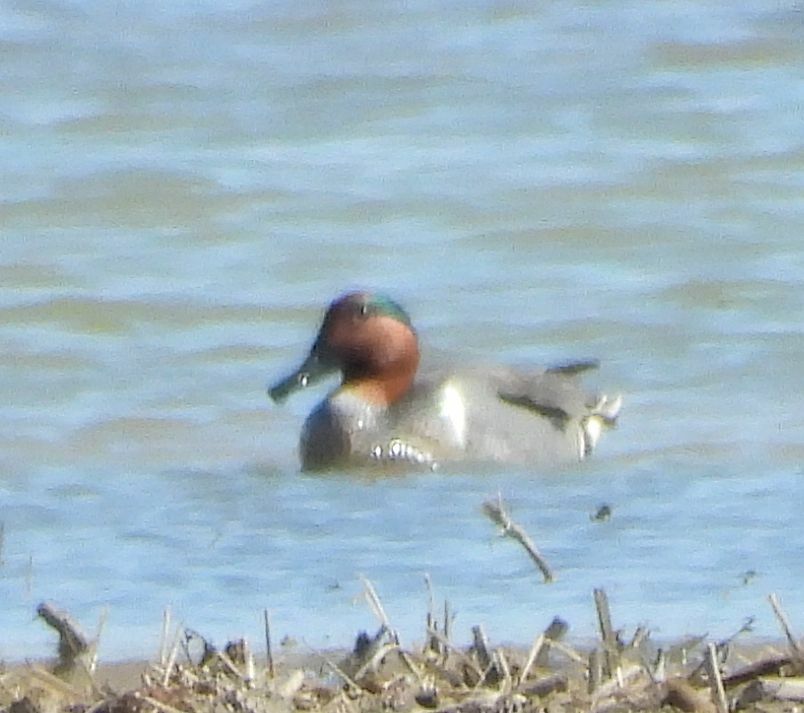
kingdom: Animalia
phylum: Chordata
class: Aves
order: Anseriformes
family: Anatidae
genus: Anas
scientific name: Anas crecca
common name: Eurasian teal
